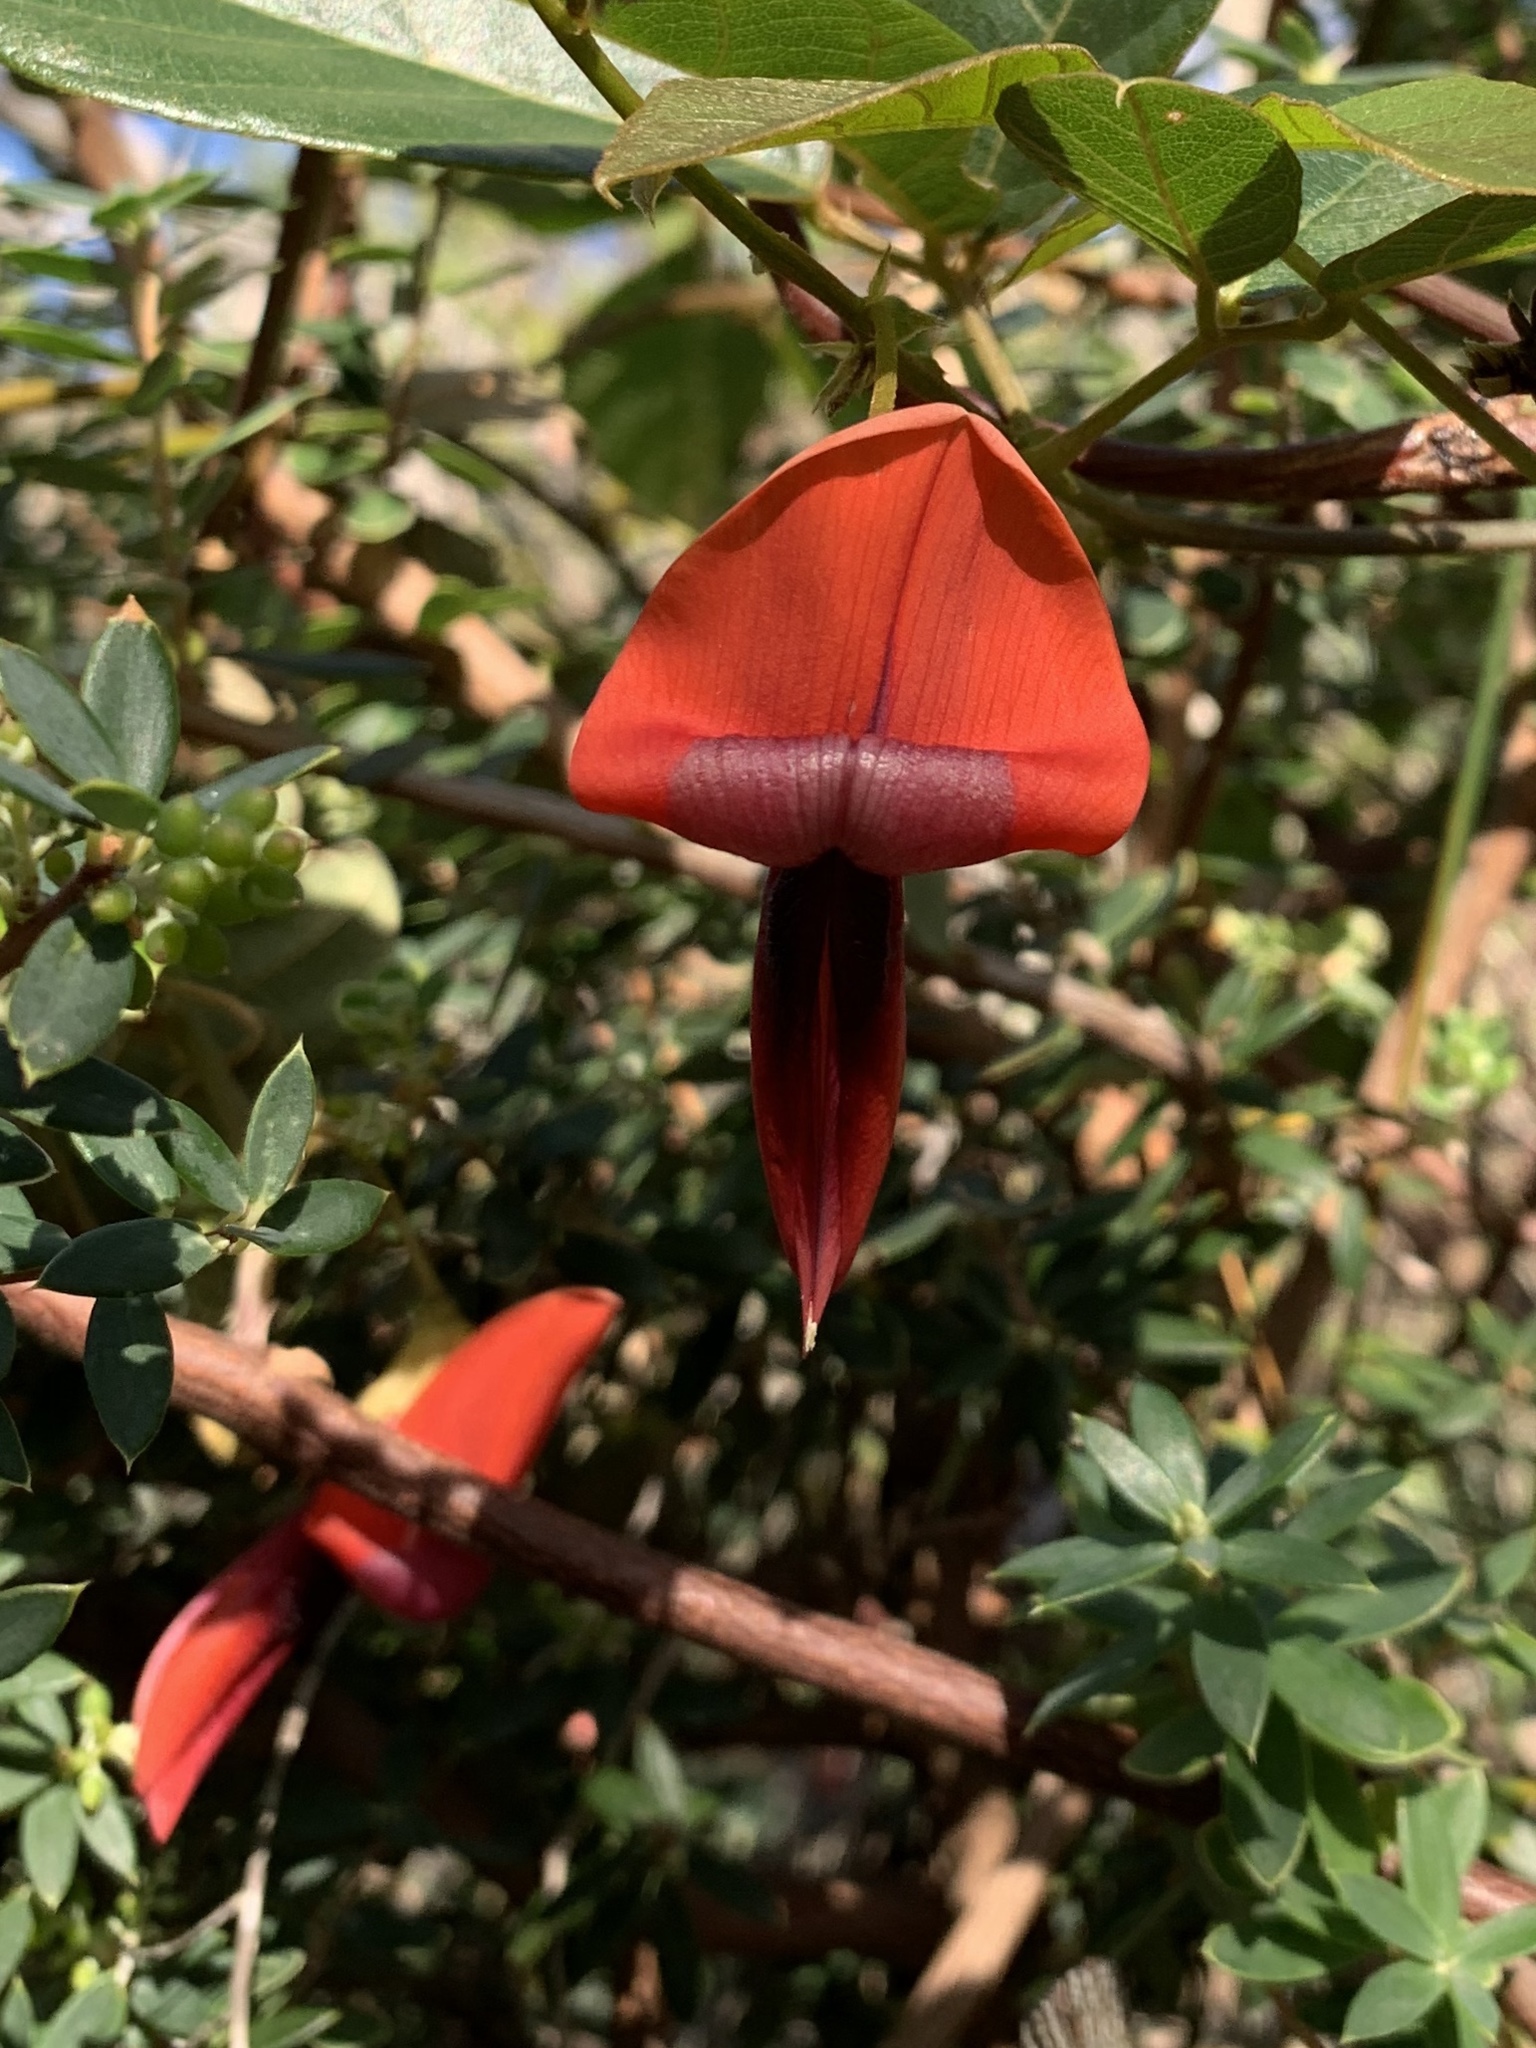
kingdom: Plantae
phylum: Tracheophyta
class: Magnoliopsida
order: Fabales
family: Fabaceae
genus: Kennedia
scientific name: Kennedia rubicunda
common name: Red kennedy-pea
